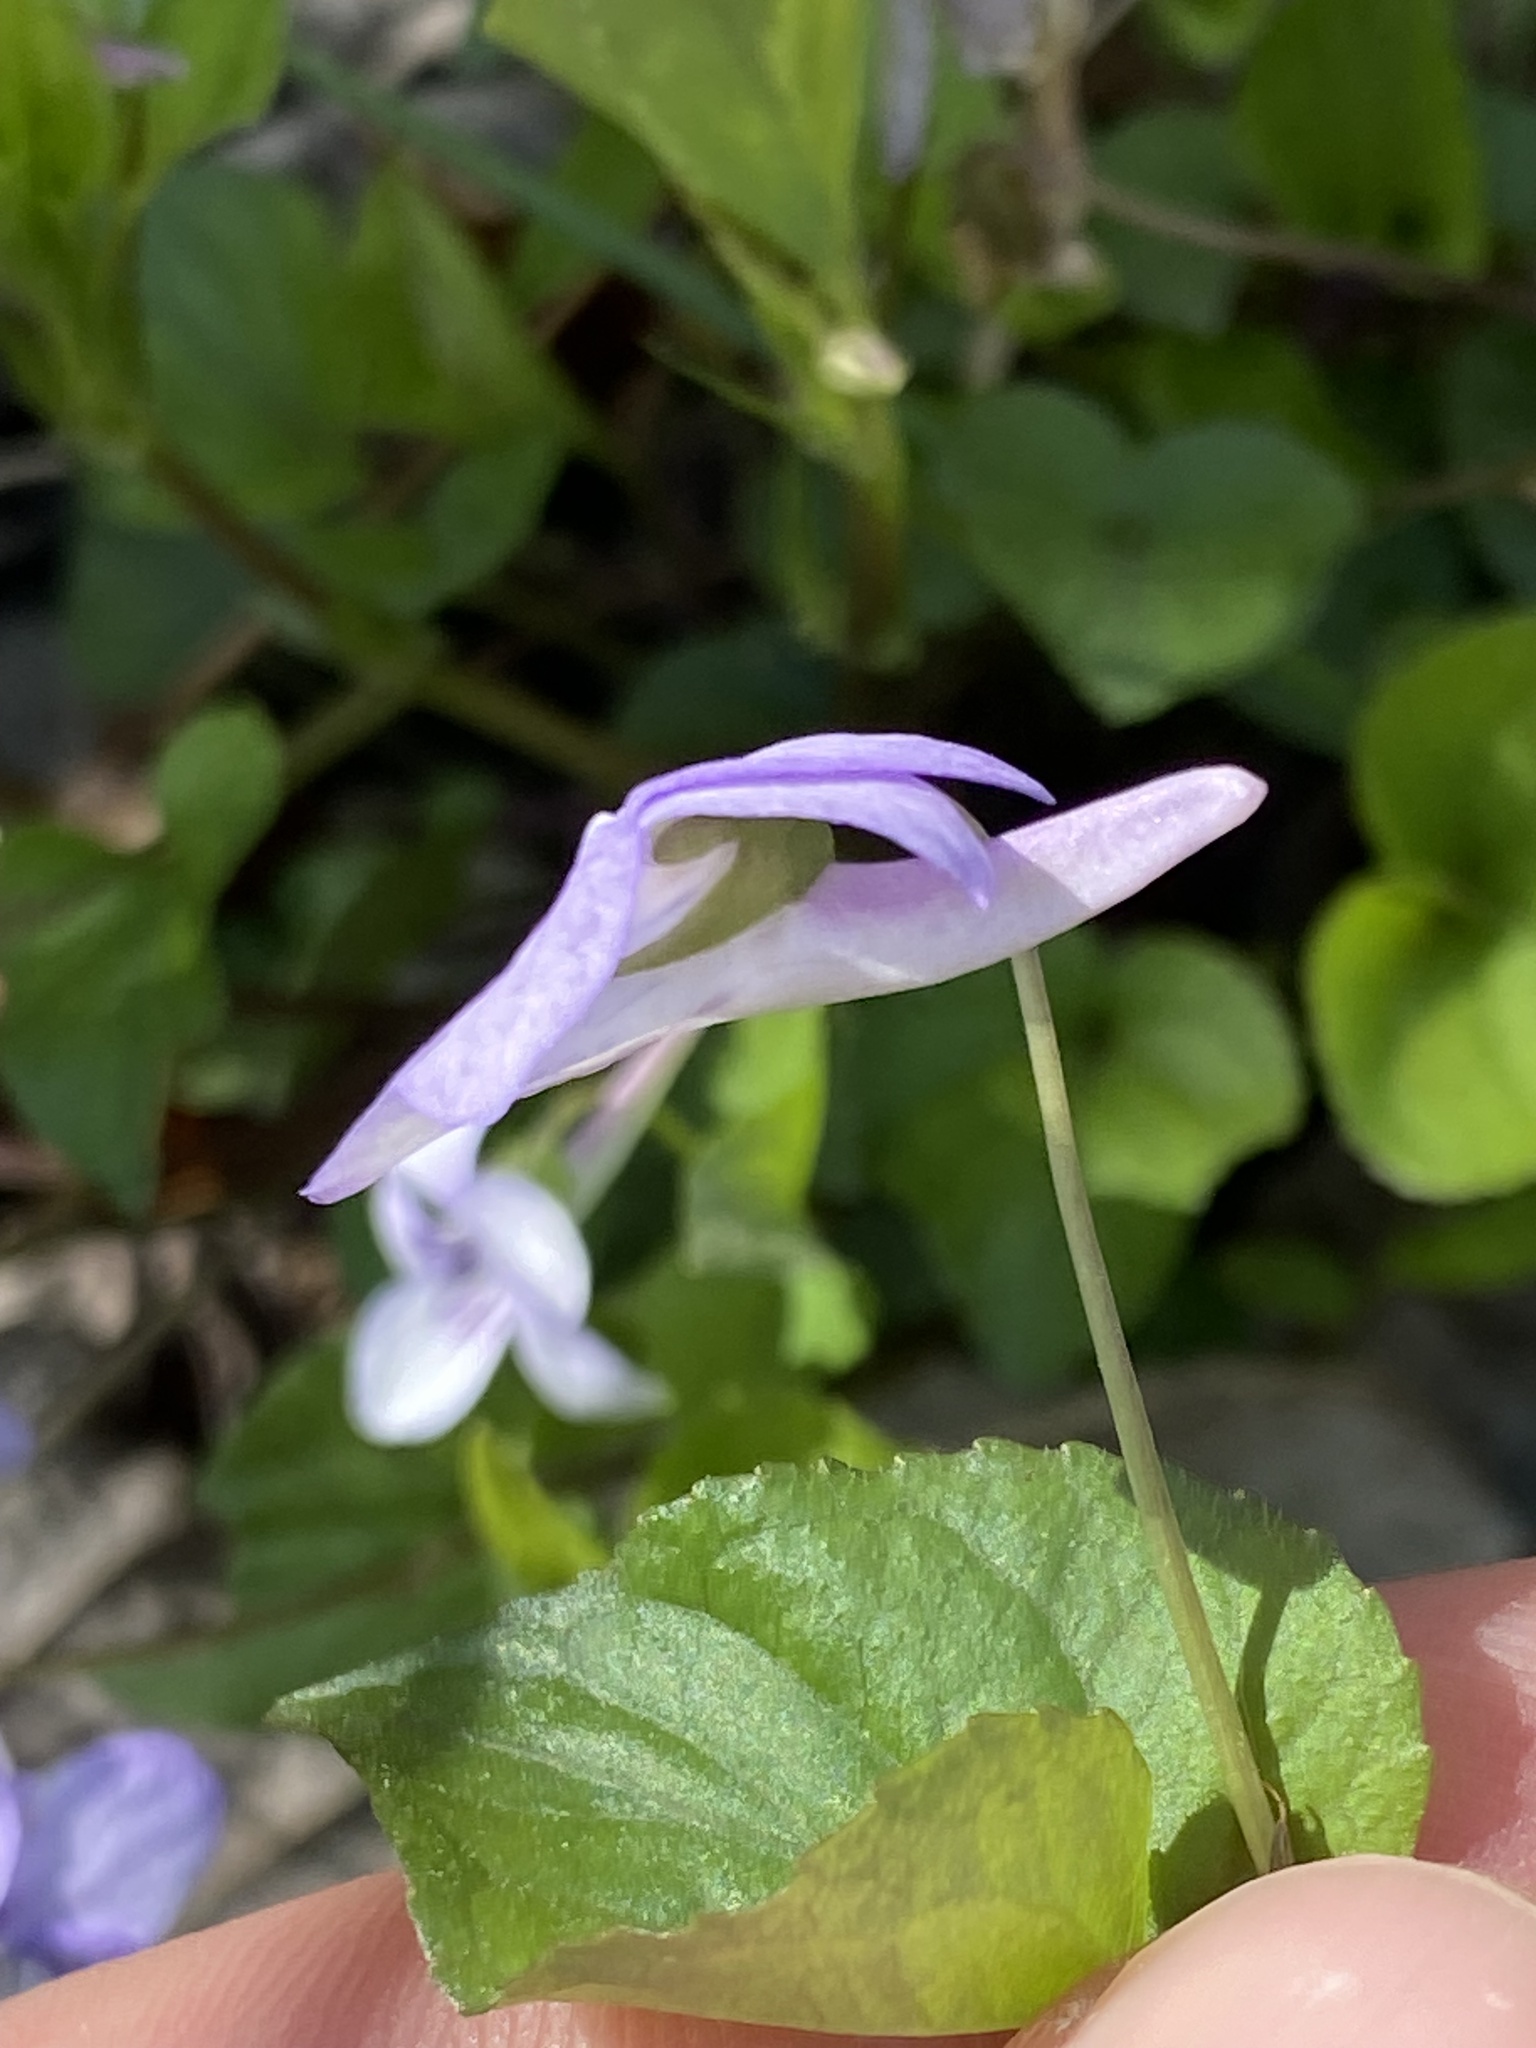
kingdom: Plantae
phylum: Tracheophyta
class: Magnoliopsida
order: Malpighiales
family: Violaceae
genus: Viola
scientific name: Viola rostrata
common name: Long-spur violet
